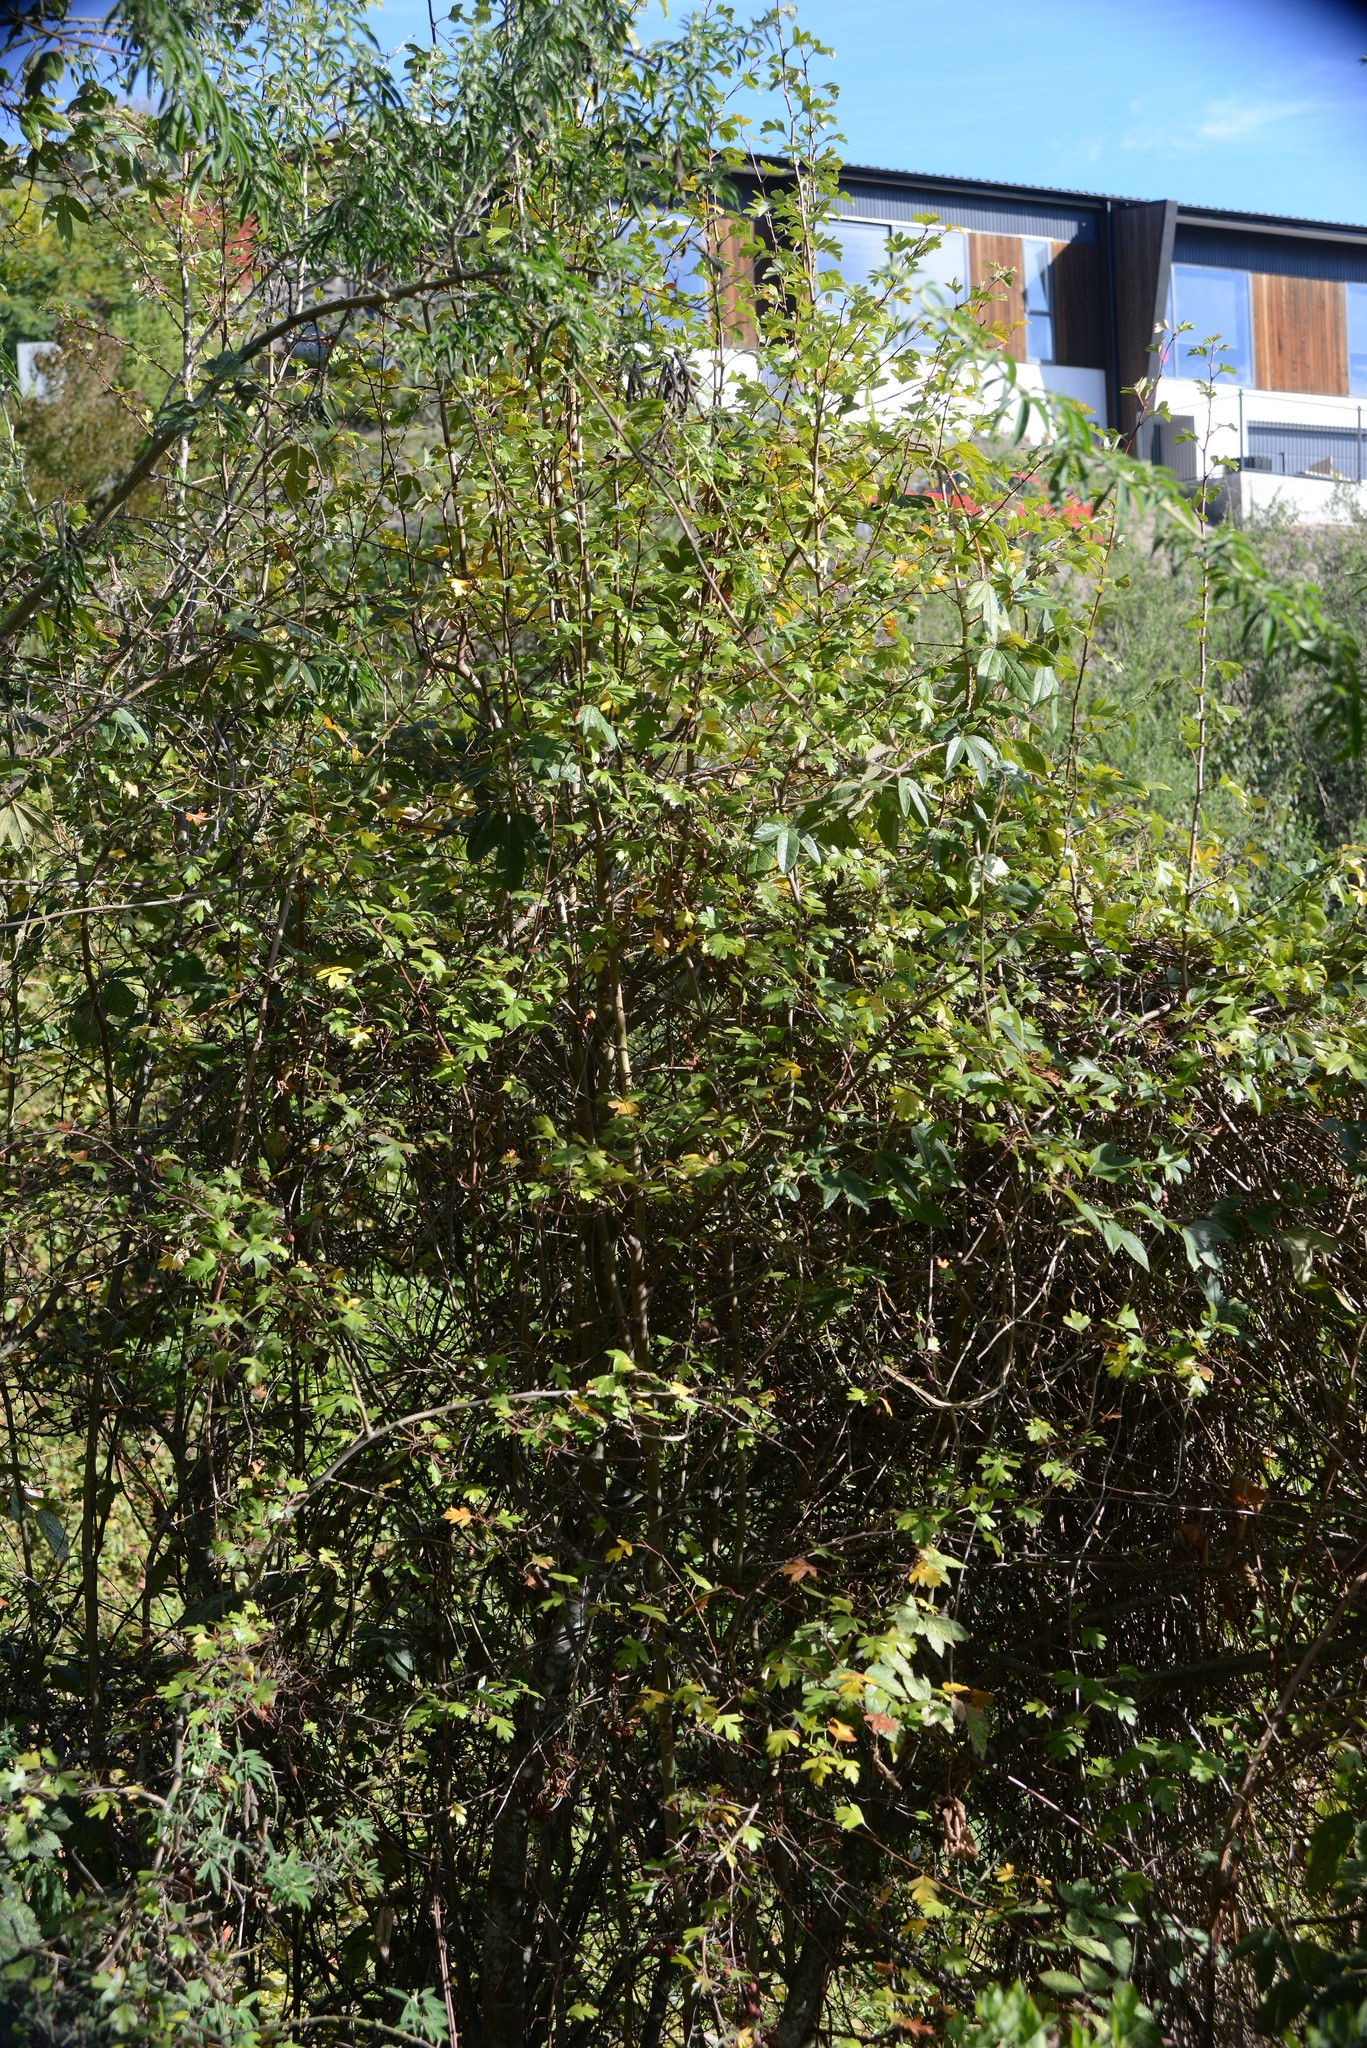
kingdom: Plantae
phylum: Tracheophyta
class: Magnoliopsida
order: Rosales
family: Rosaceae
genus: Crataegus
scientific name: Crataegus monogyna
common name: Hawthorn
